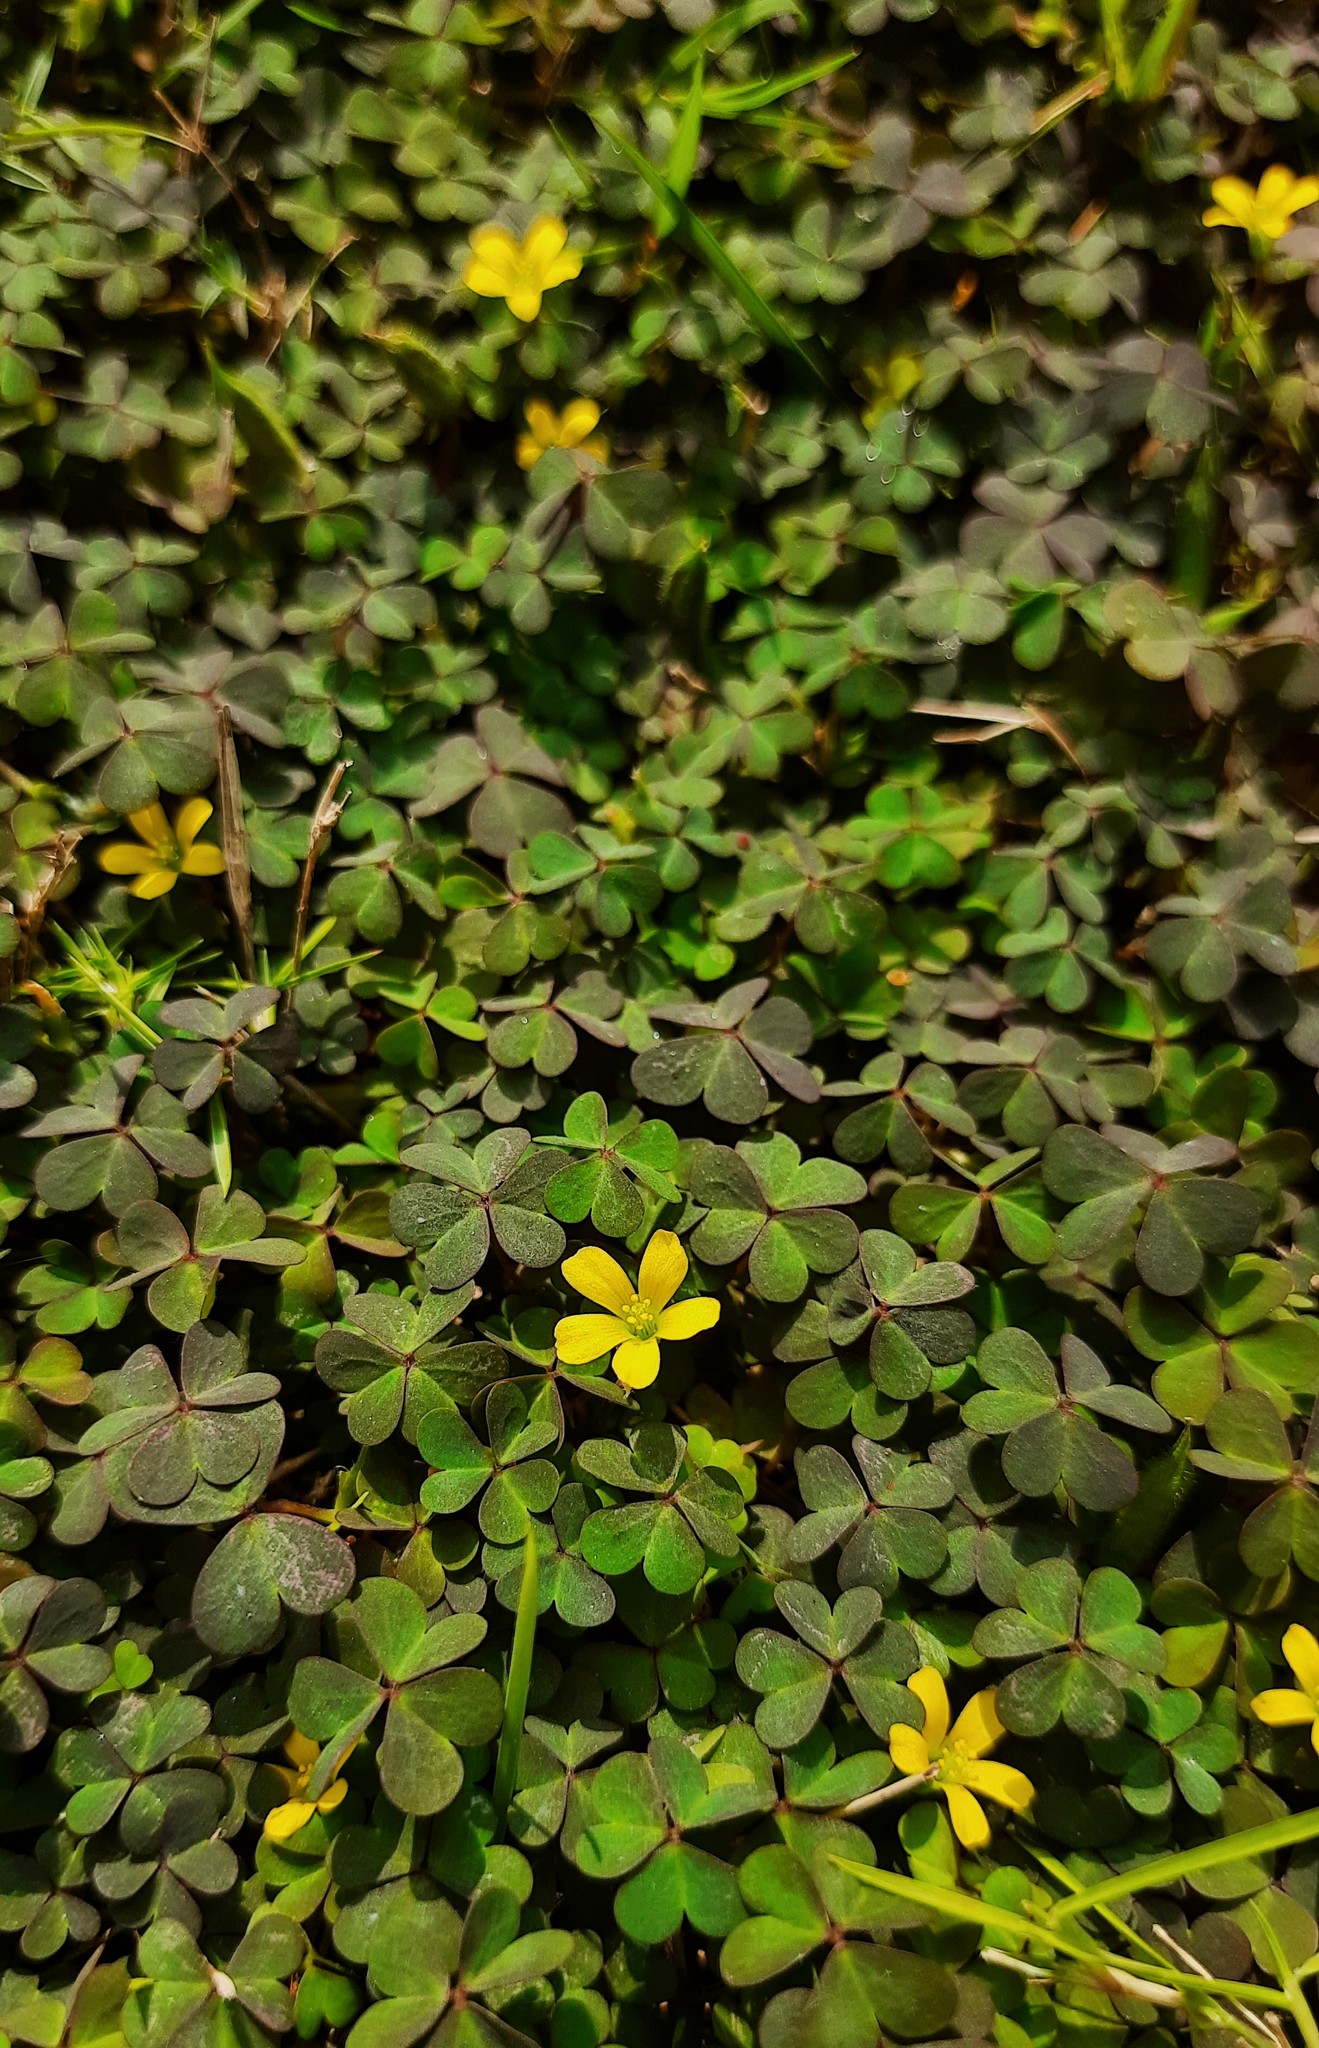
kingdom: Plantae
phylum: Tracheophyta
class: Magnoliopsida
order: Oxalidales
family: Oxalidaceae
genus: Oxalis
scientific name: Oxalis corniculata
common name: Procumbent yellow-sorrel
